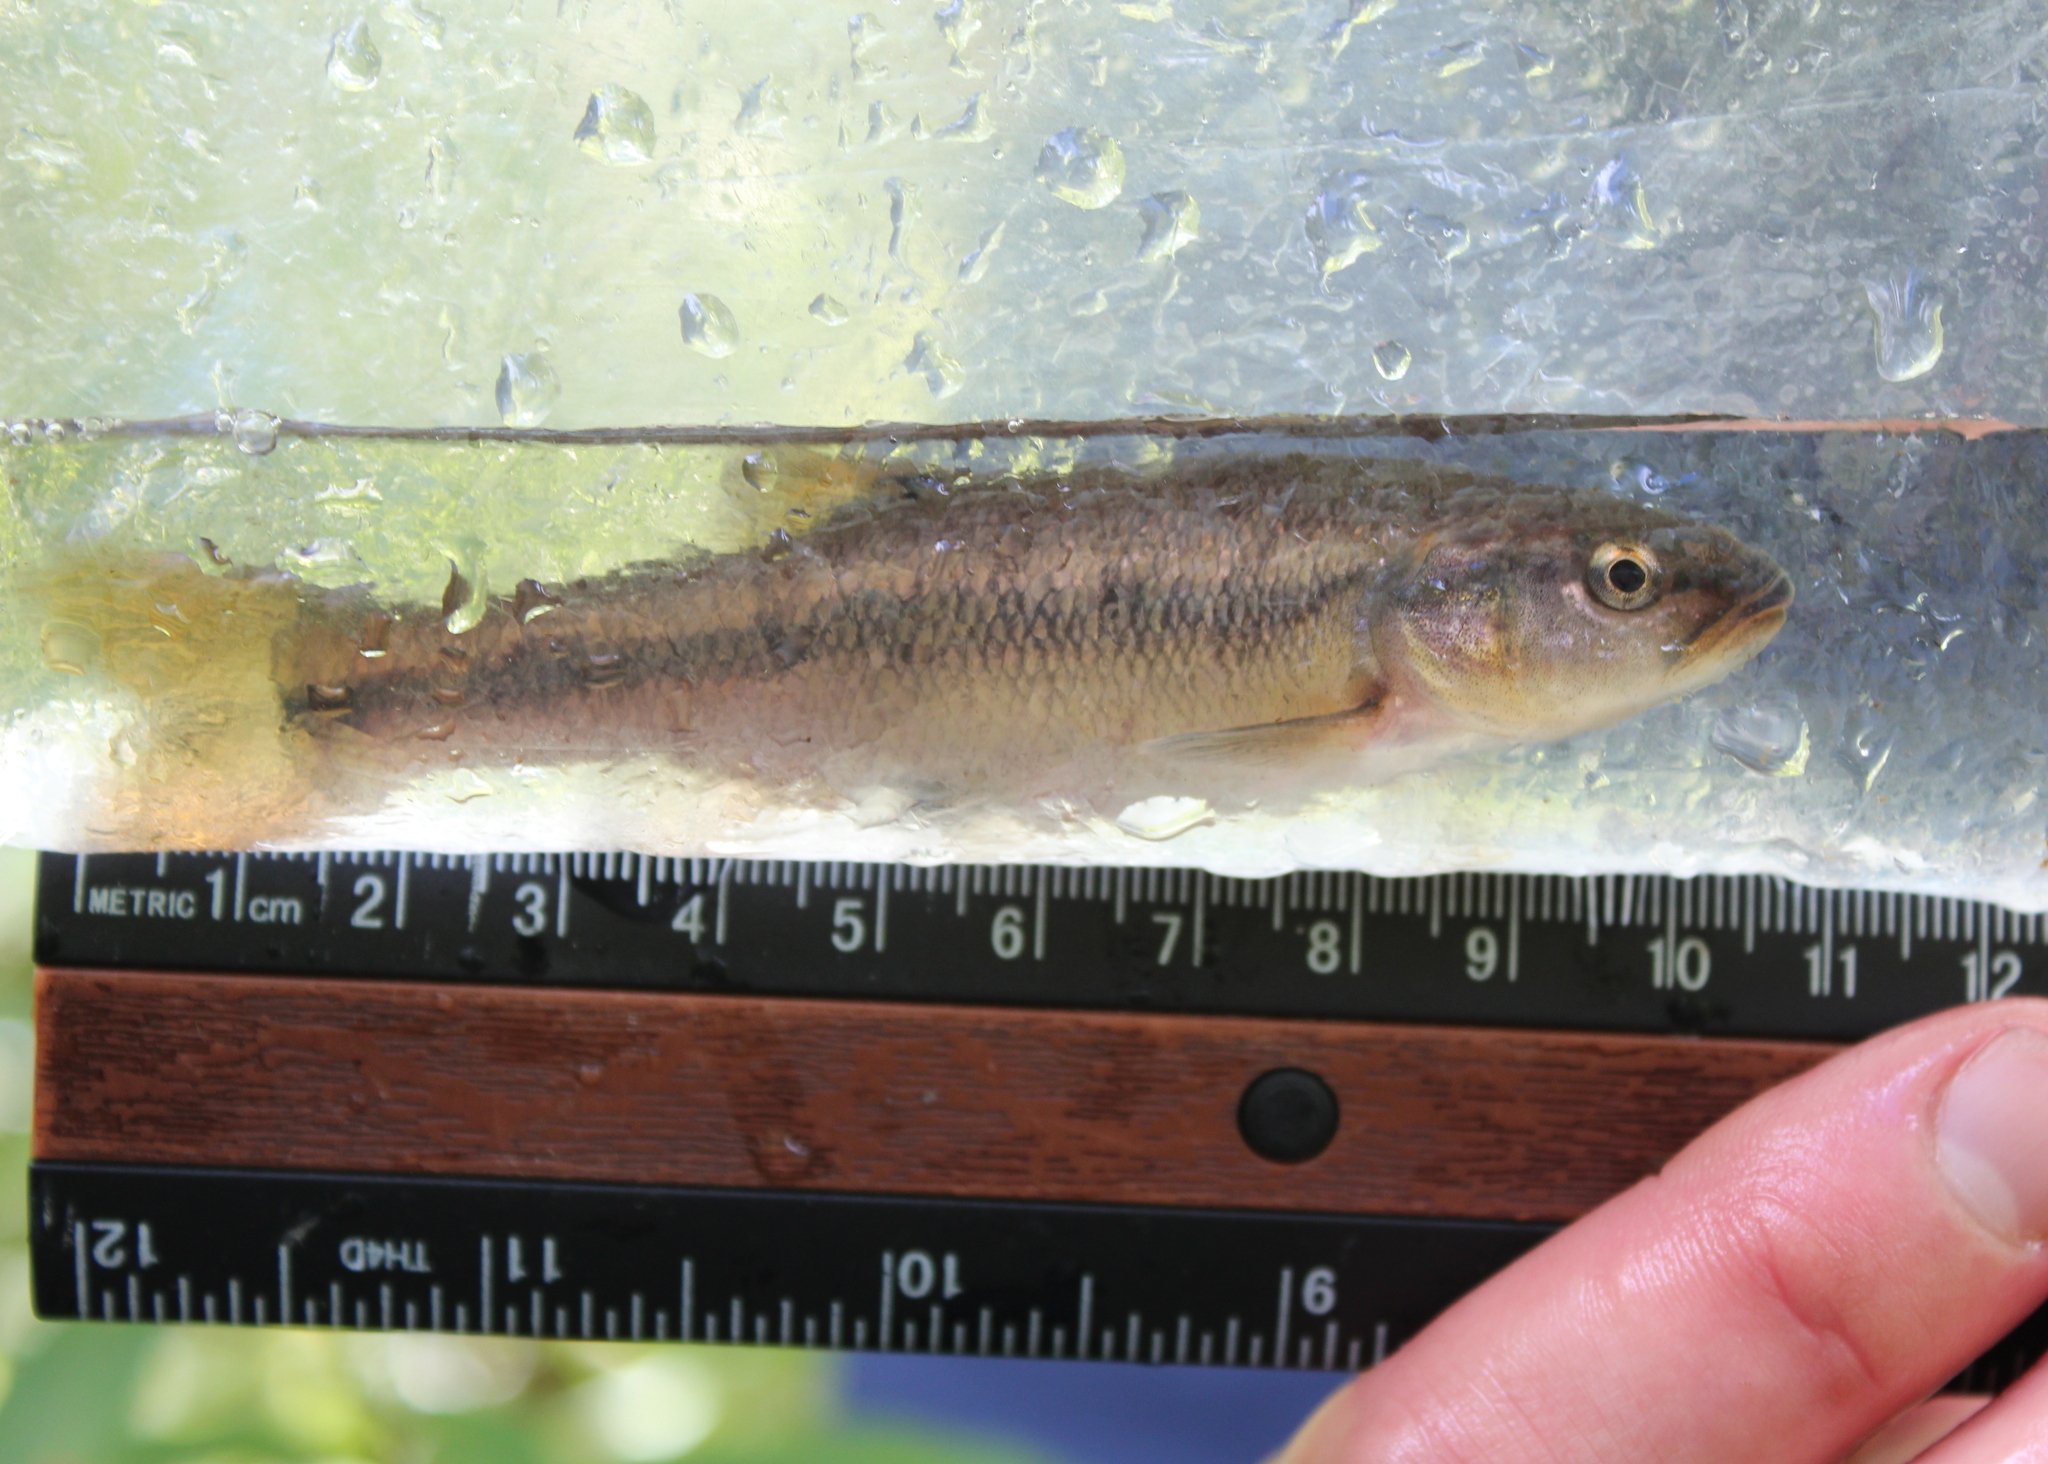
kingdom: Animalia
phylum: Chordata
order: Cypriniformes
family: Cyprinidae
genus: Semotilus
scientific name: Semotilus atromaculatus
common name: Creek chub
